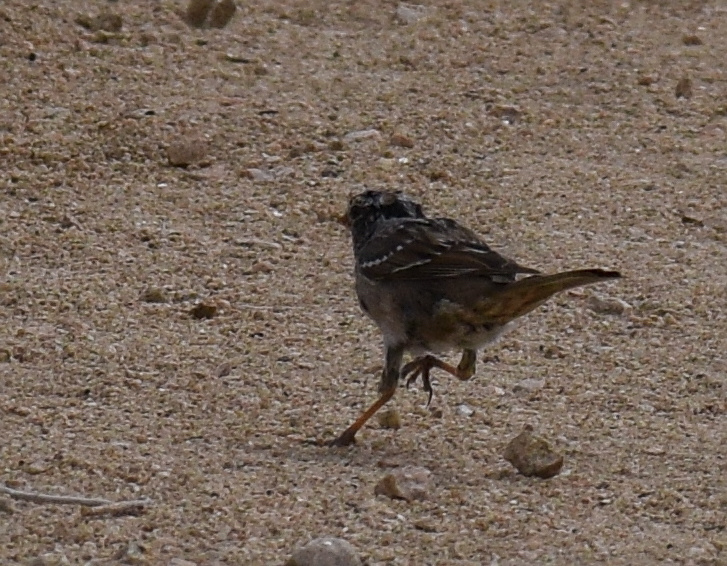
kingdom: Animalia
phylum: Chordata
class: Aves
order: Passeriformes
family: Passerellidae
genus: Zonotrichia
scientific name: Zonotrichia leucophrys
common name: White-crowned sparrow
